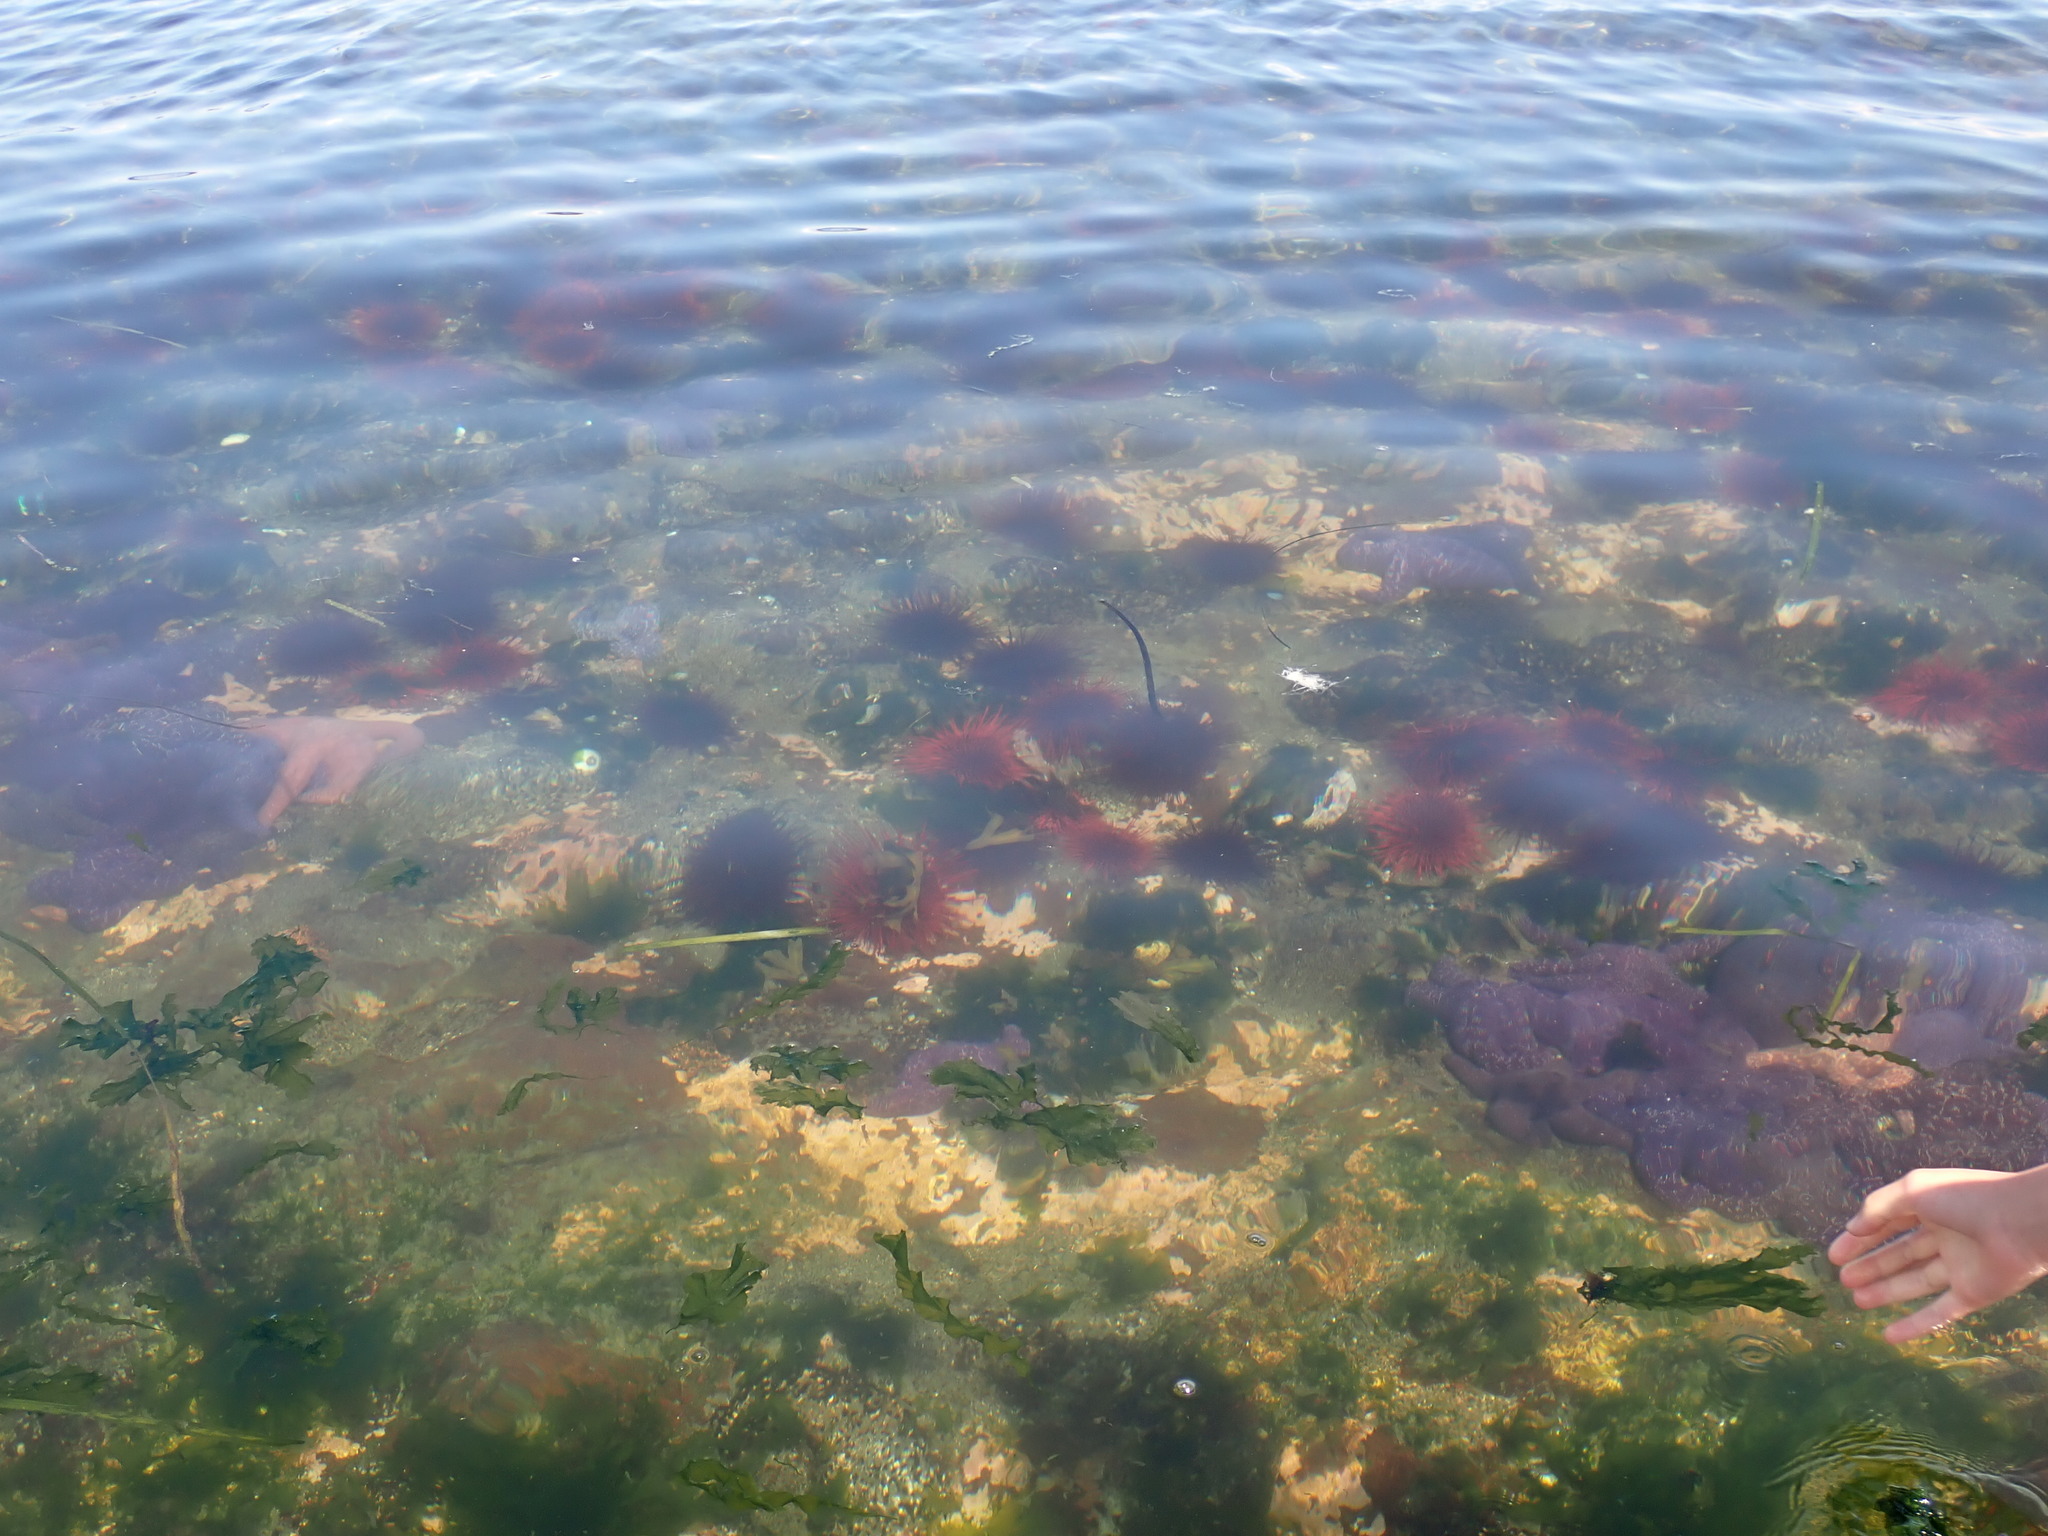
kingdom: Animalia
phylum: Echinodermata
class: Echinoidea
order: Camarodonta
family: Strongylocentrotidae
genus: Mesocentrotus
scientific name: Mesocentrotus franciscanus
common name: Red sea urchin
